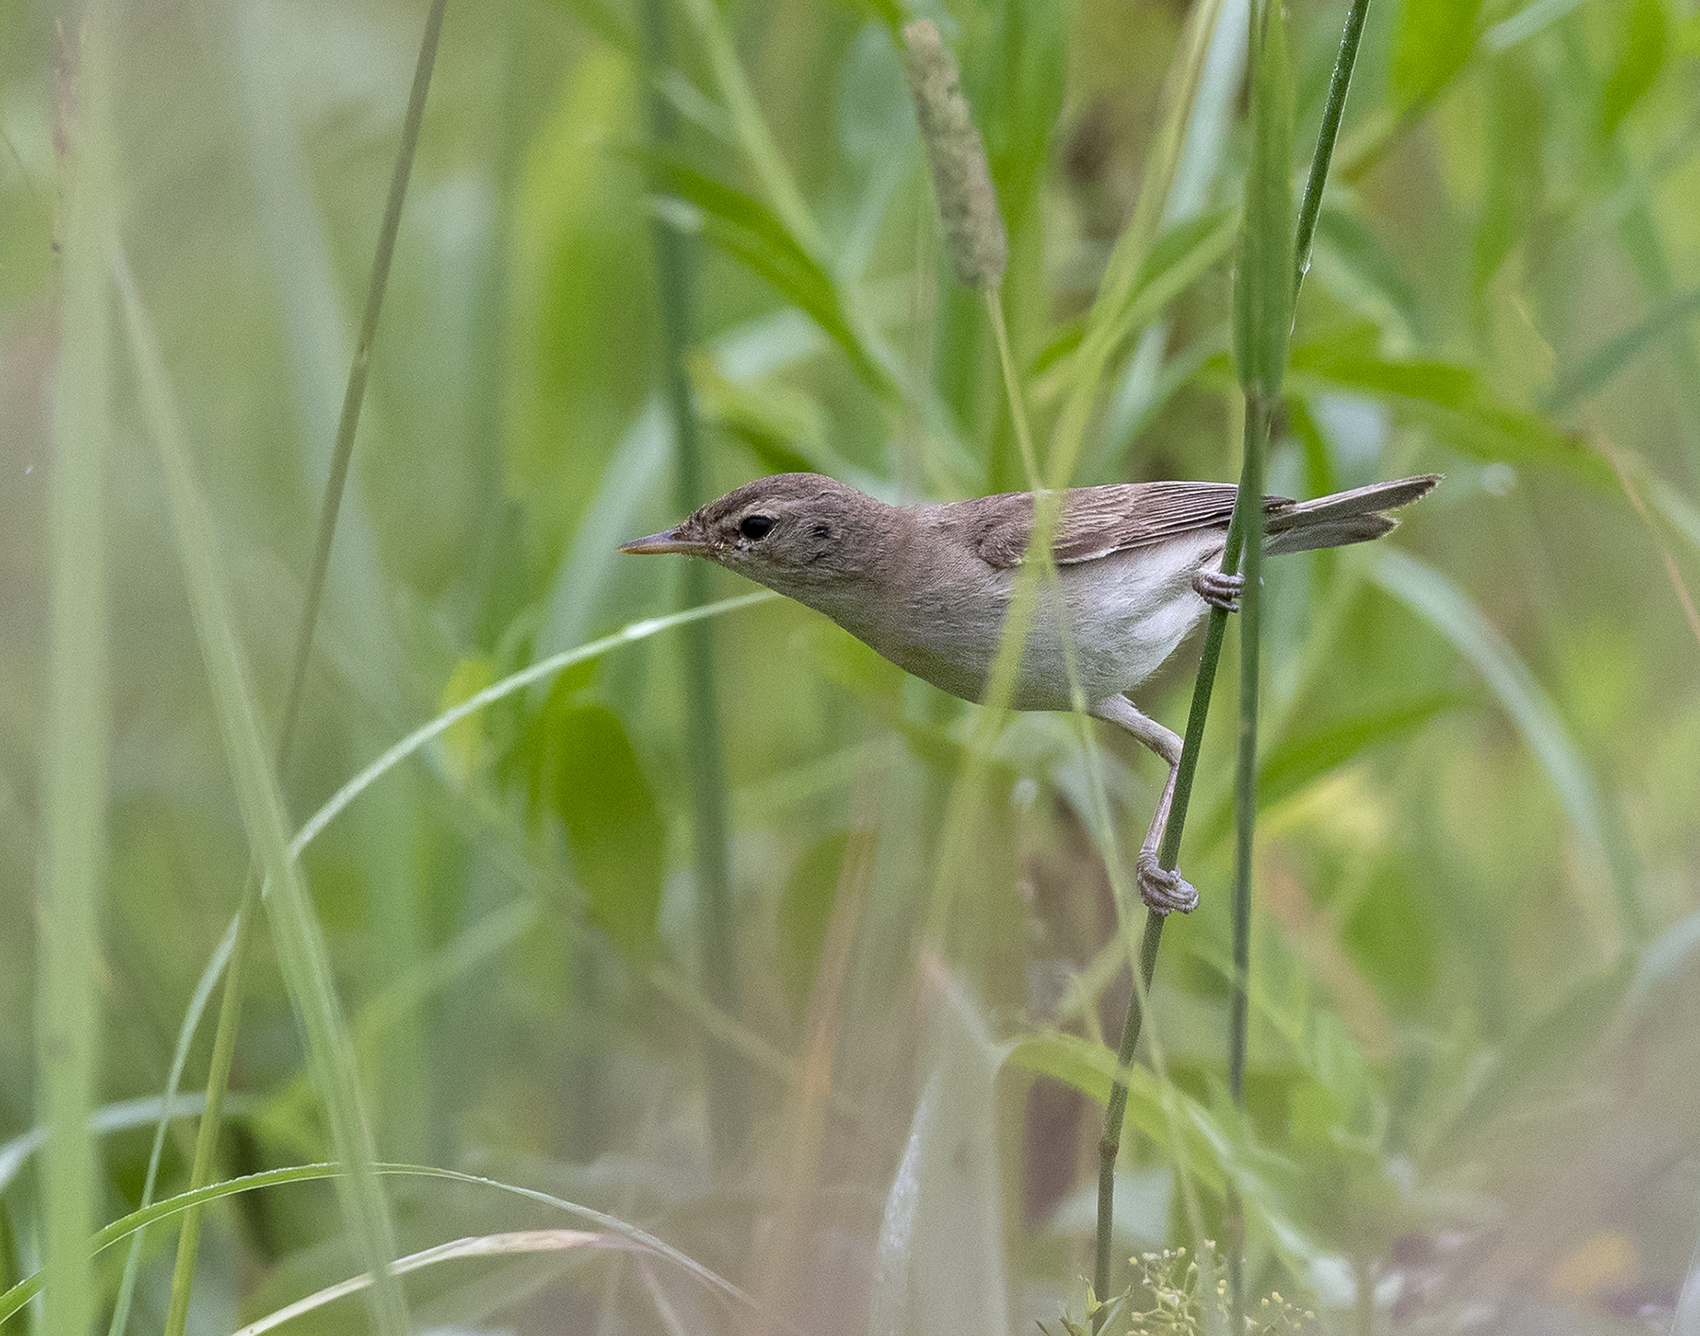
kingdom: Animalia
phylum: Chordata
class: Aves
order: Passeriformes
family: Acrocephalidae
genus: Iduna
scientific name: Iduna caligata
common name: Booted warbler
